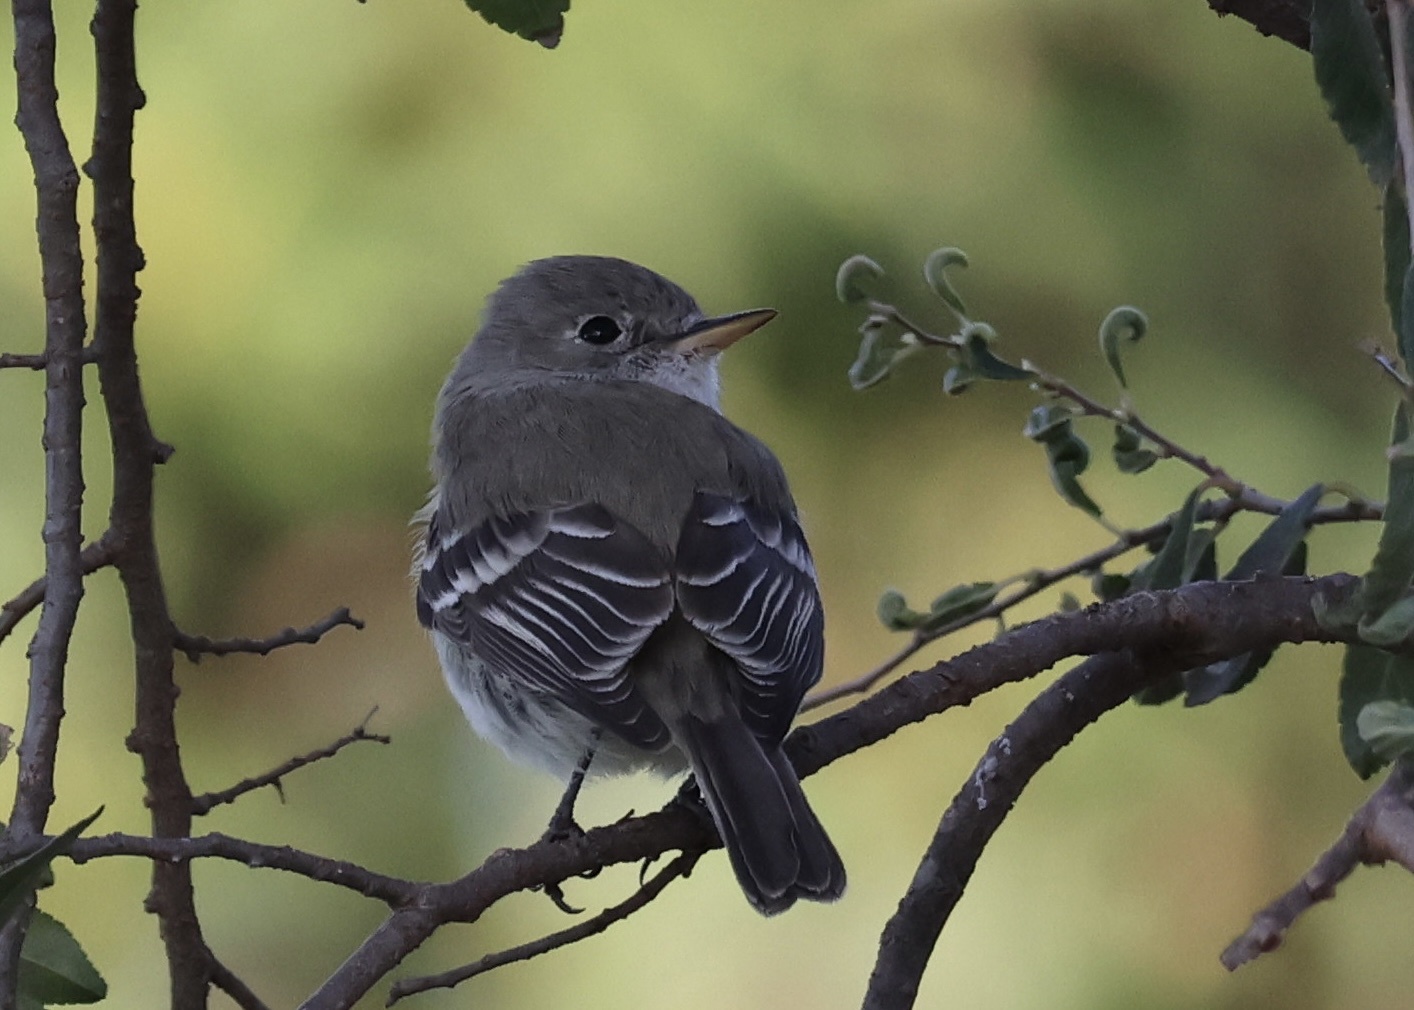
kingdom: Animalia
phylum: Chordata
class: Aves
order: Passeriformes
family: Tyrannidae
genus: Empidonax
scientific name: Empidonax wrightii
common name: Gray flycatcher
